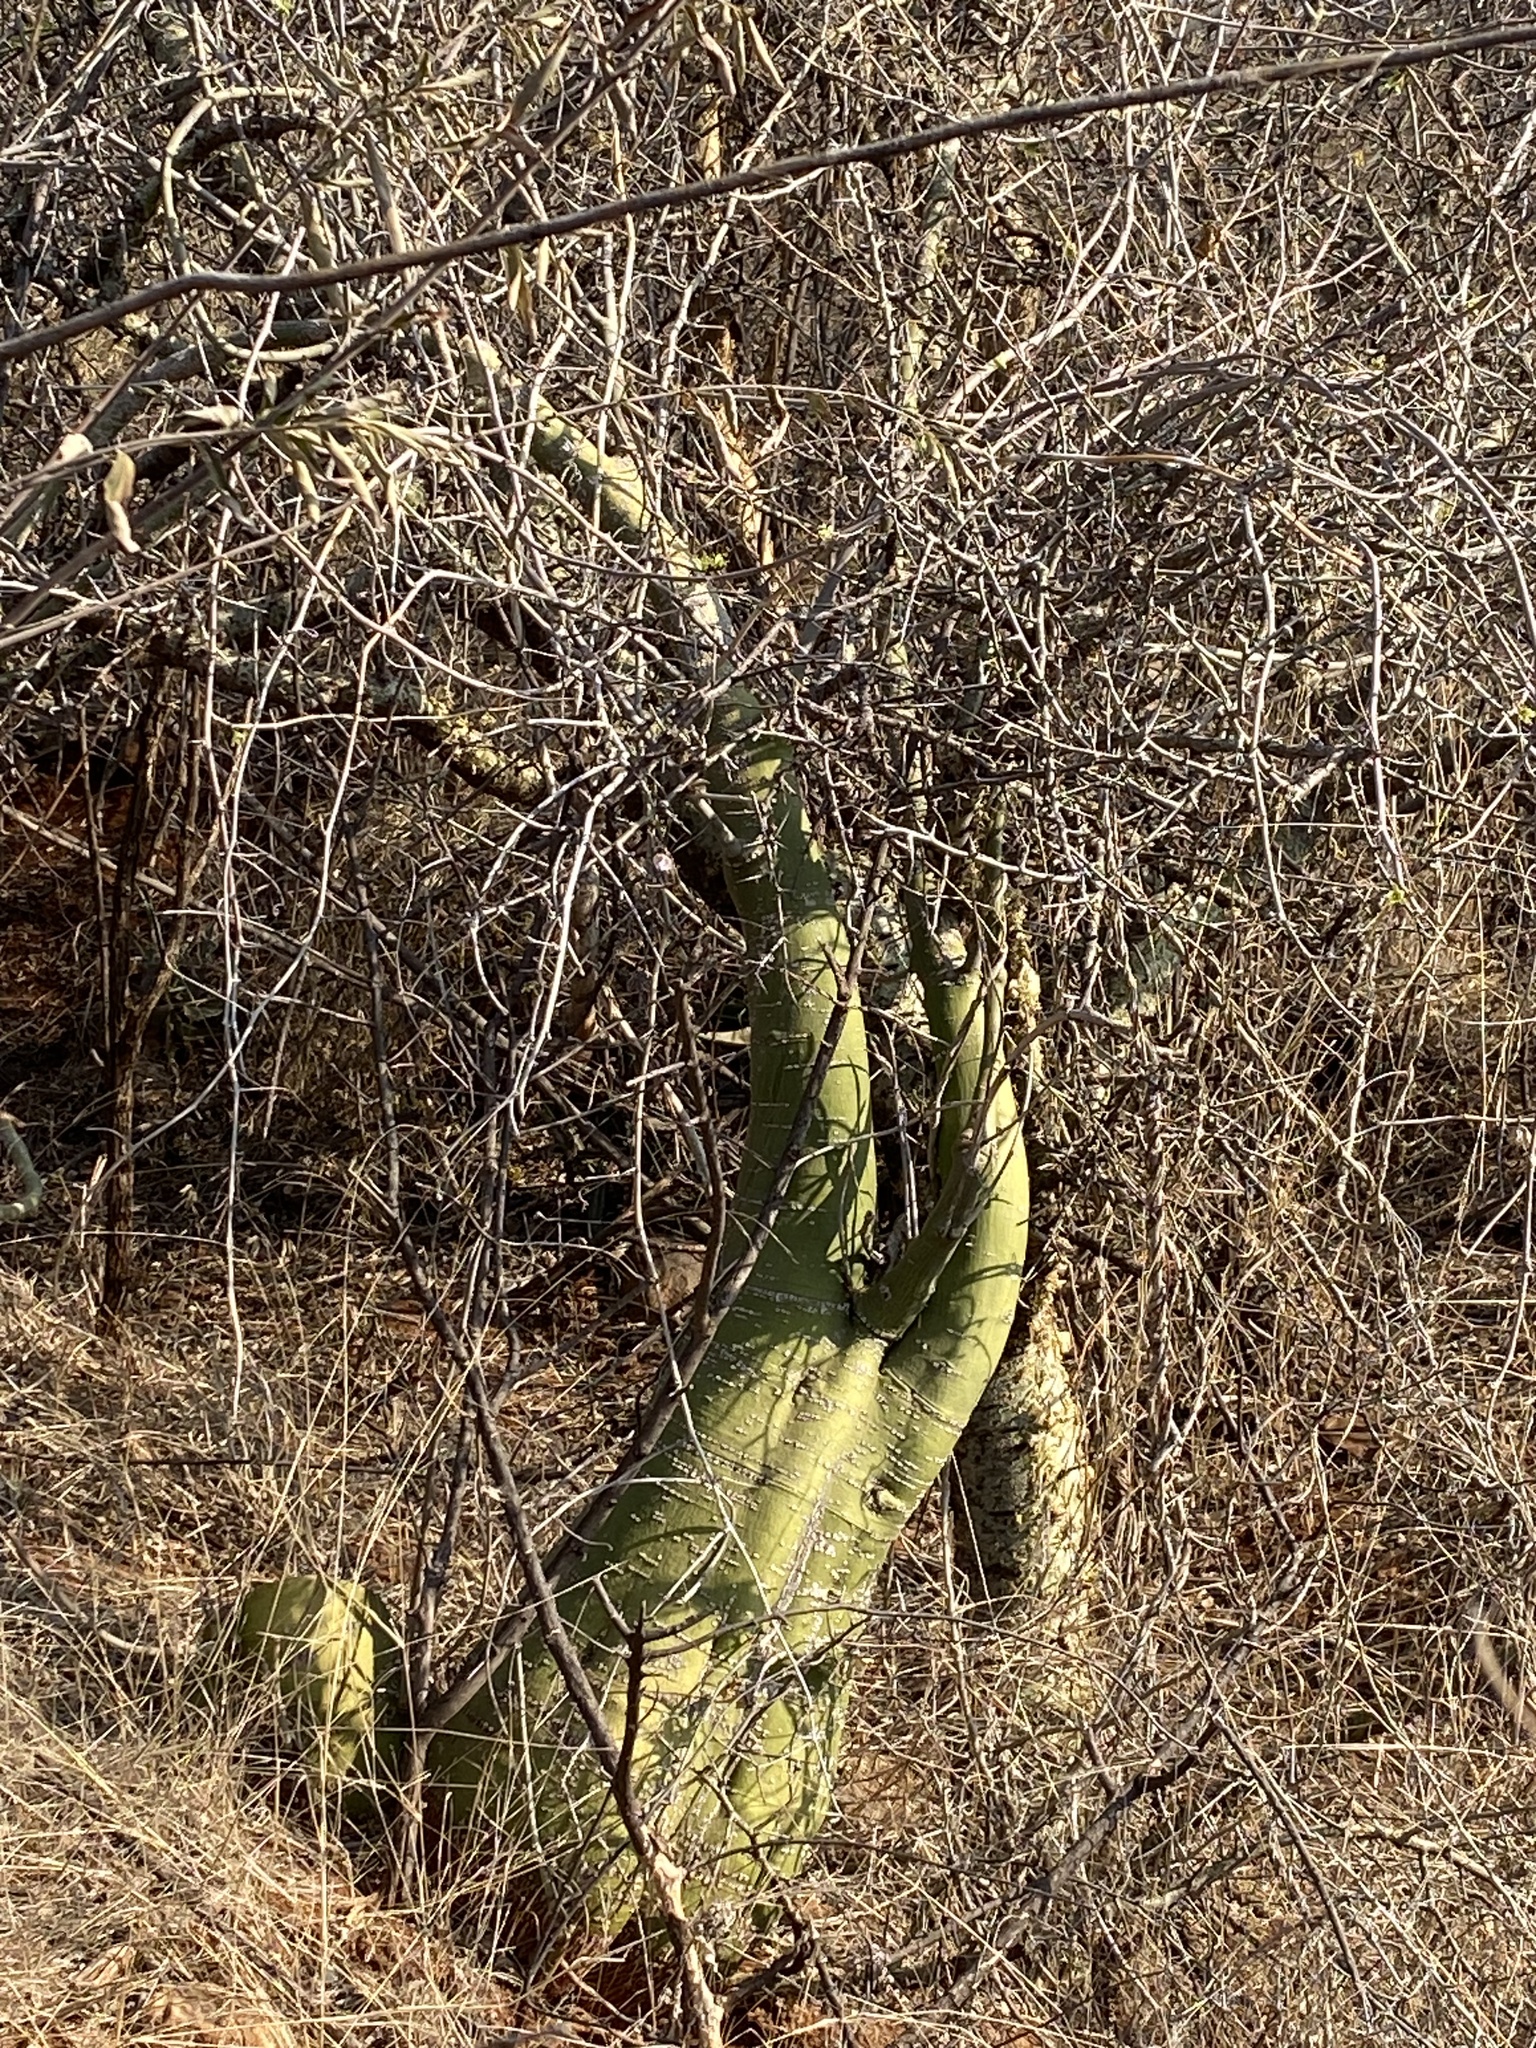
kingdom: Plantae
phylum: Tracheophyta
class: Magnoliopsida
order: Malpighiales
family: Passifloraceae
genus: Adenia
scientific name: Adenia fruticosa
